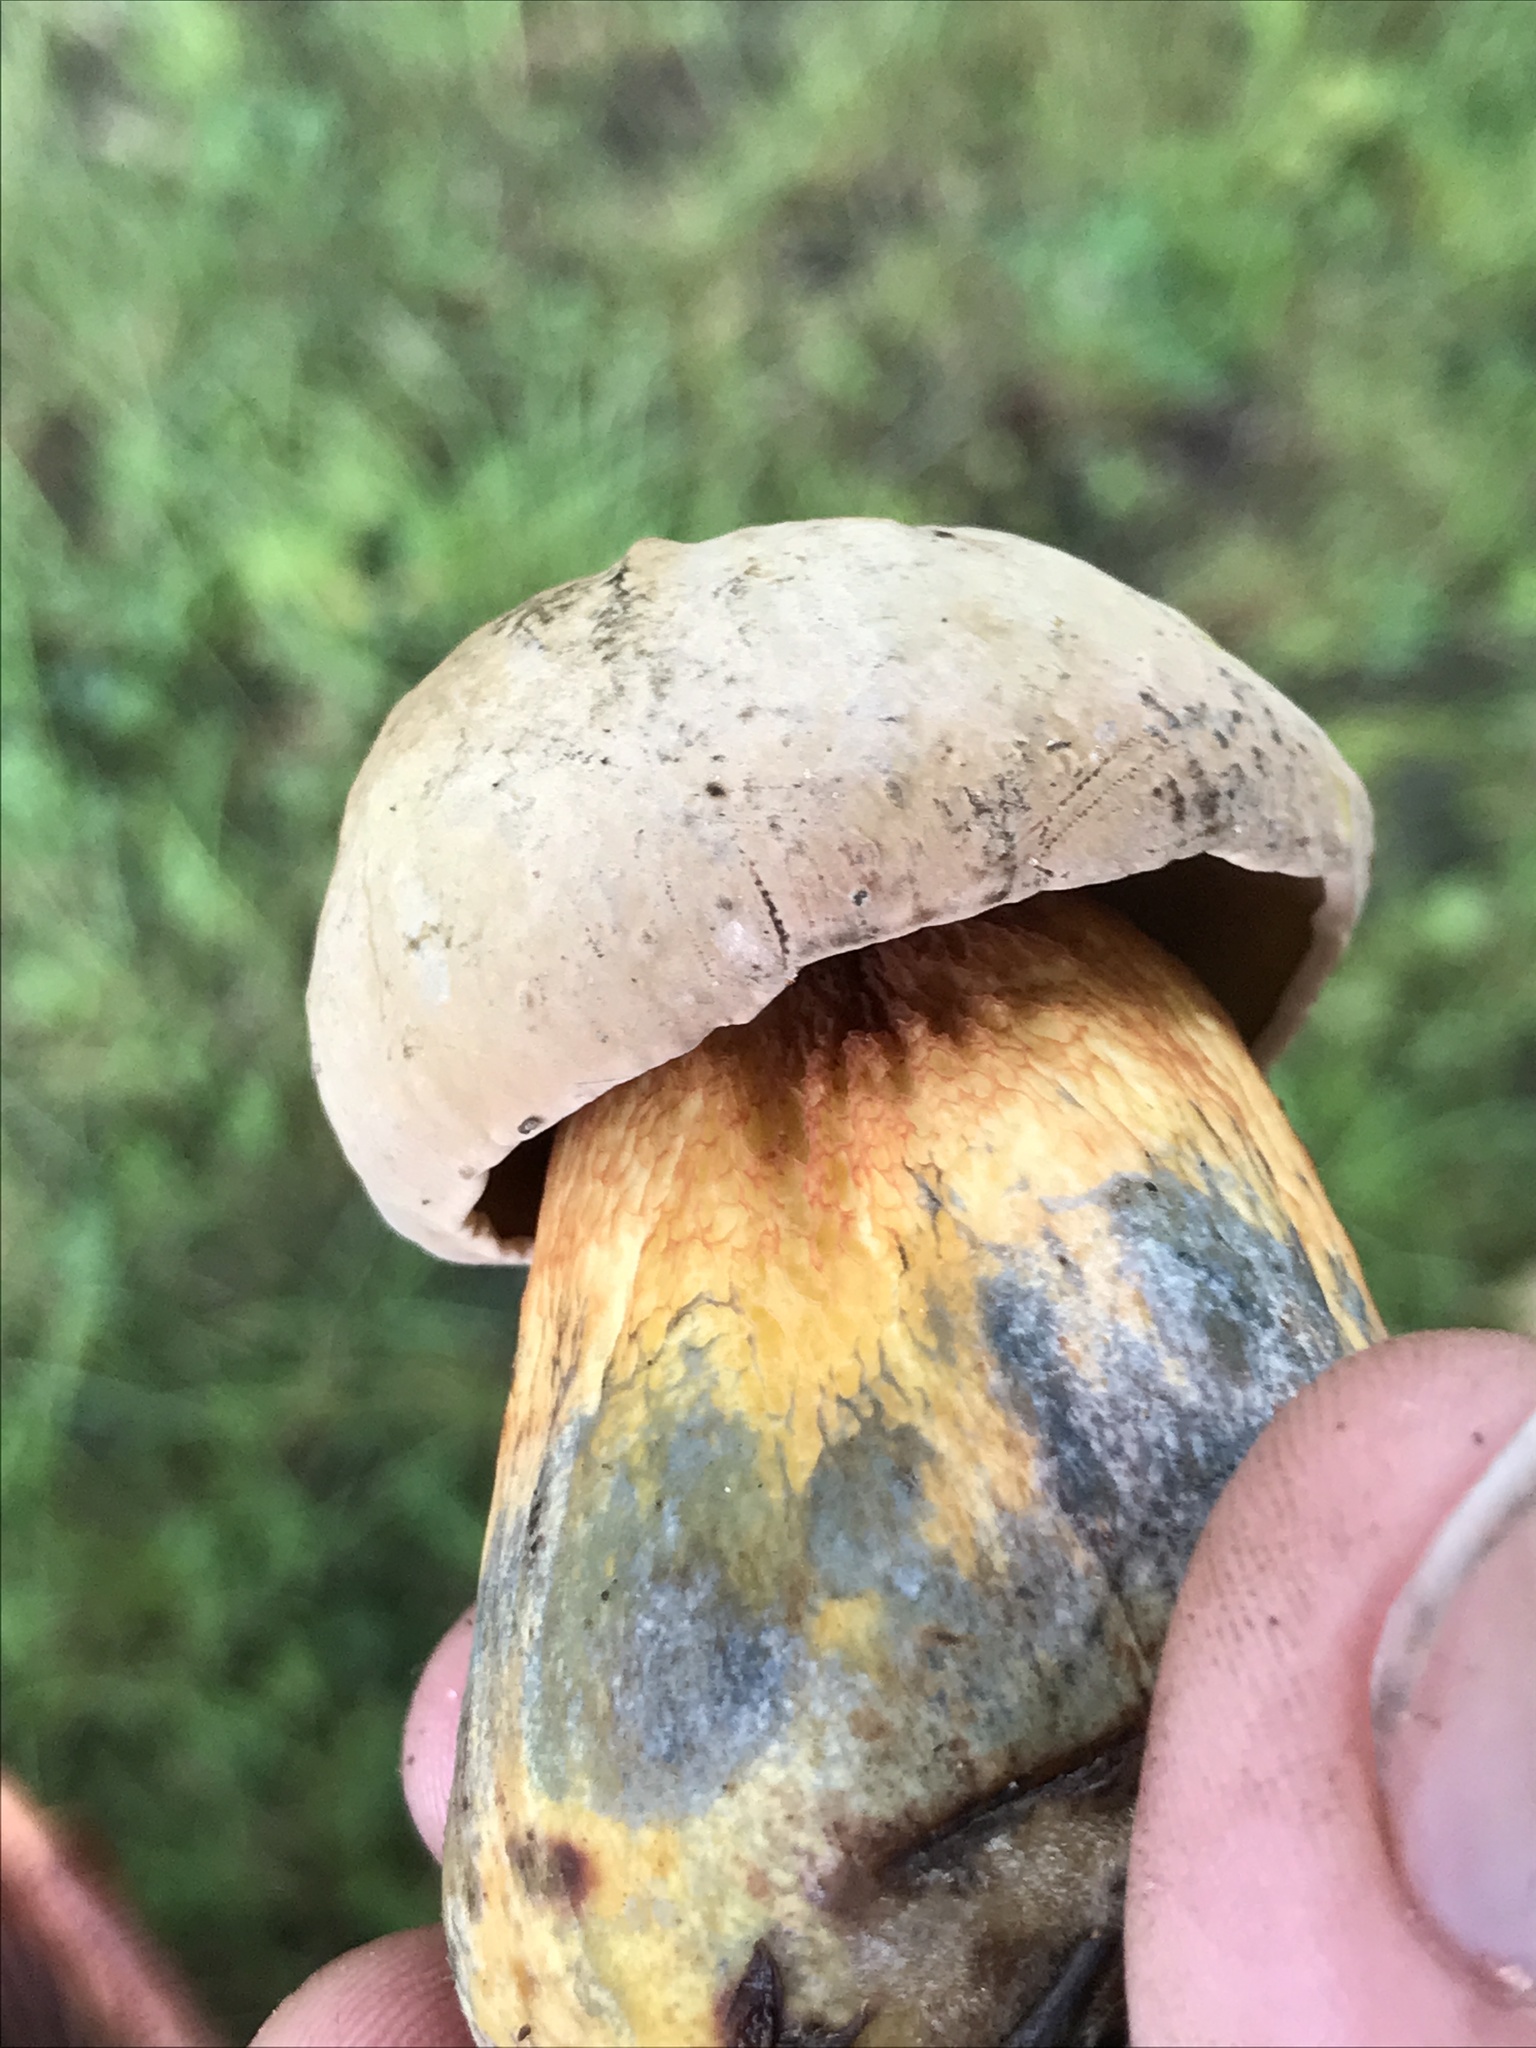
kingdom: Fungi
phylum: Basidiomycota
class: Agaricomycetes
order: Boletales
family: Boletaceae
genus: Suillellus
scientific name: Suillellus luridus
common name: Lurid bolete
